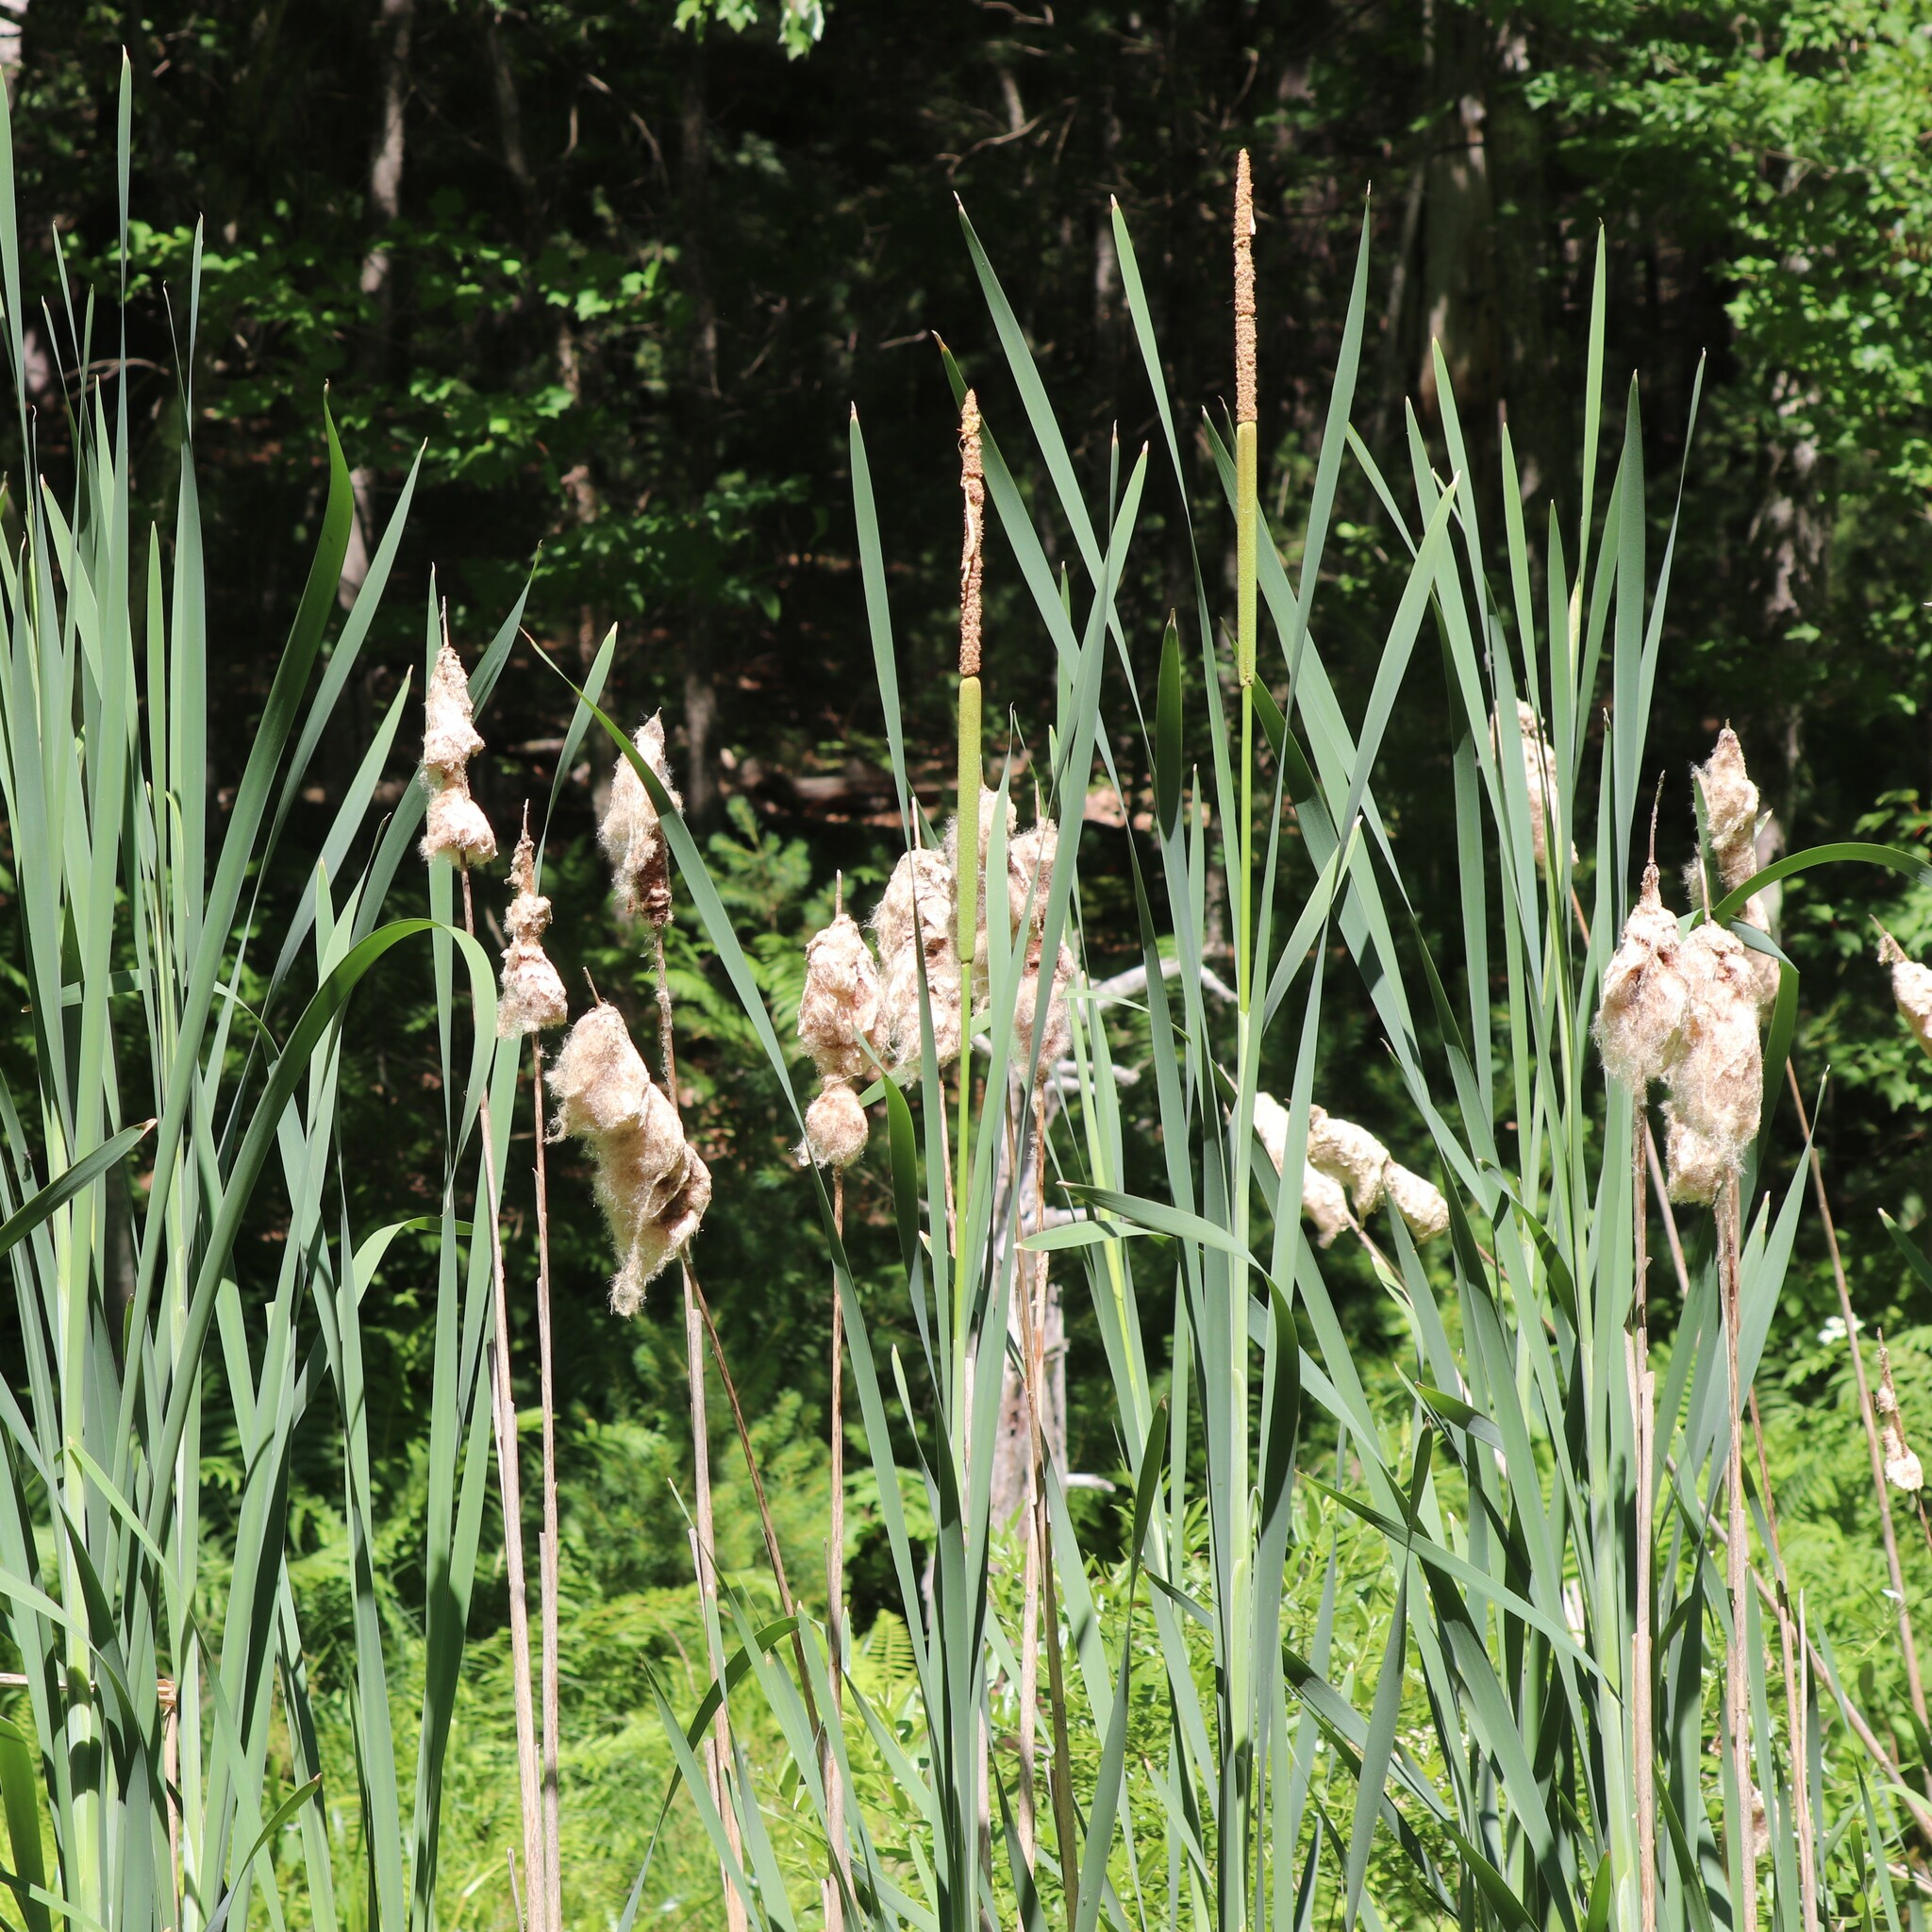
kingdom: Plantae
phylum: Tracheophyta
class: Liliopsida
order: Poales
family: Typhaceae
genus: Typha
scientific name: Typha latifolia
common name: Broadleaf cattail
